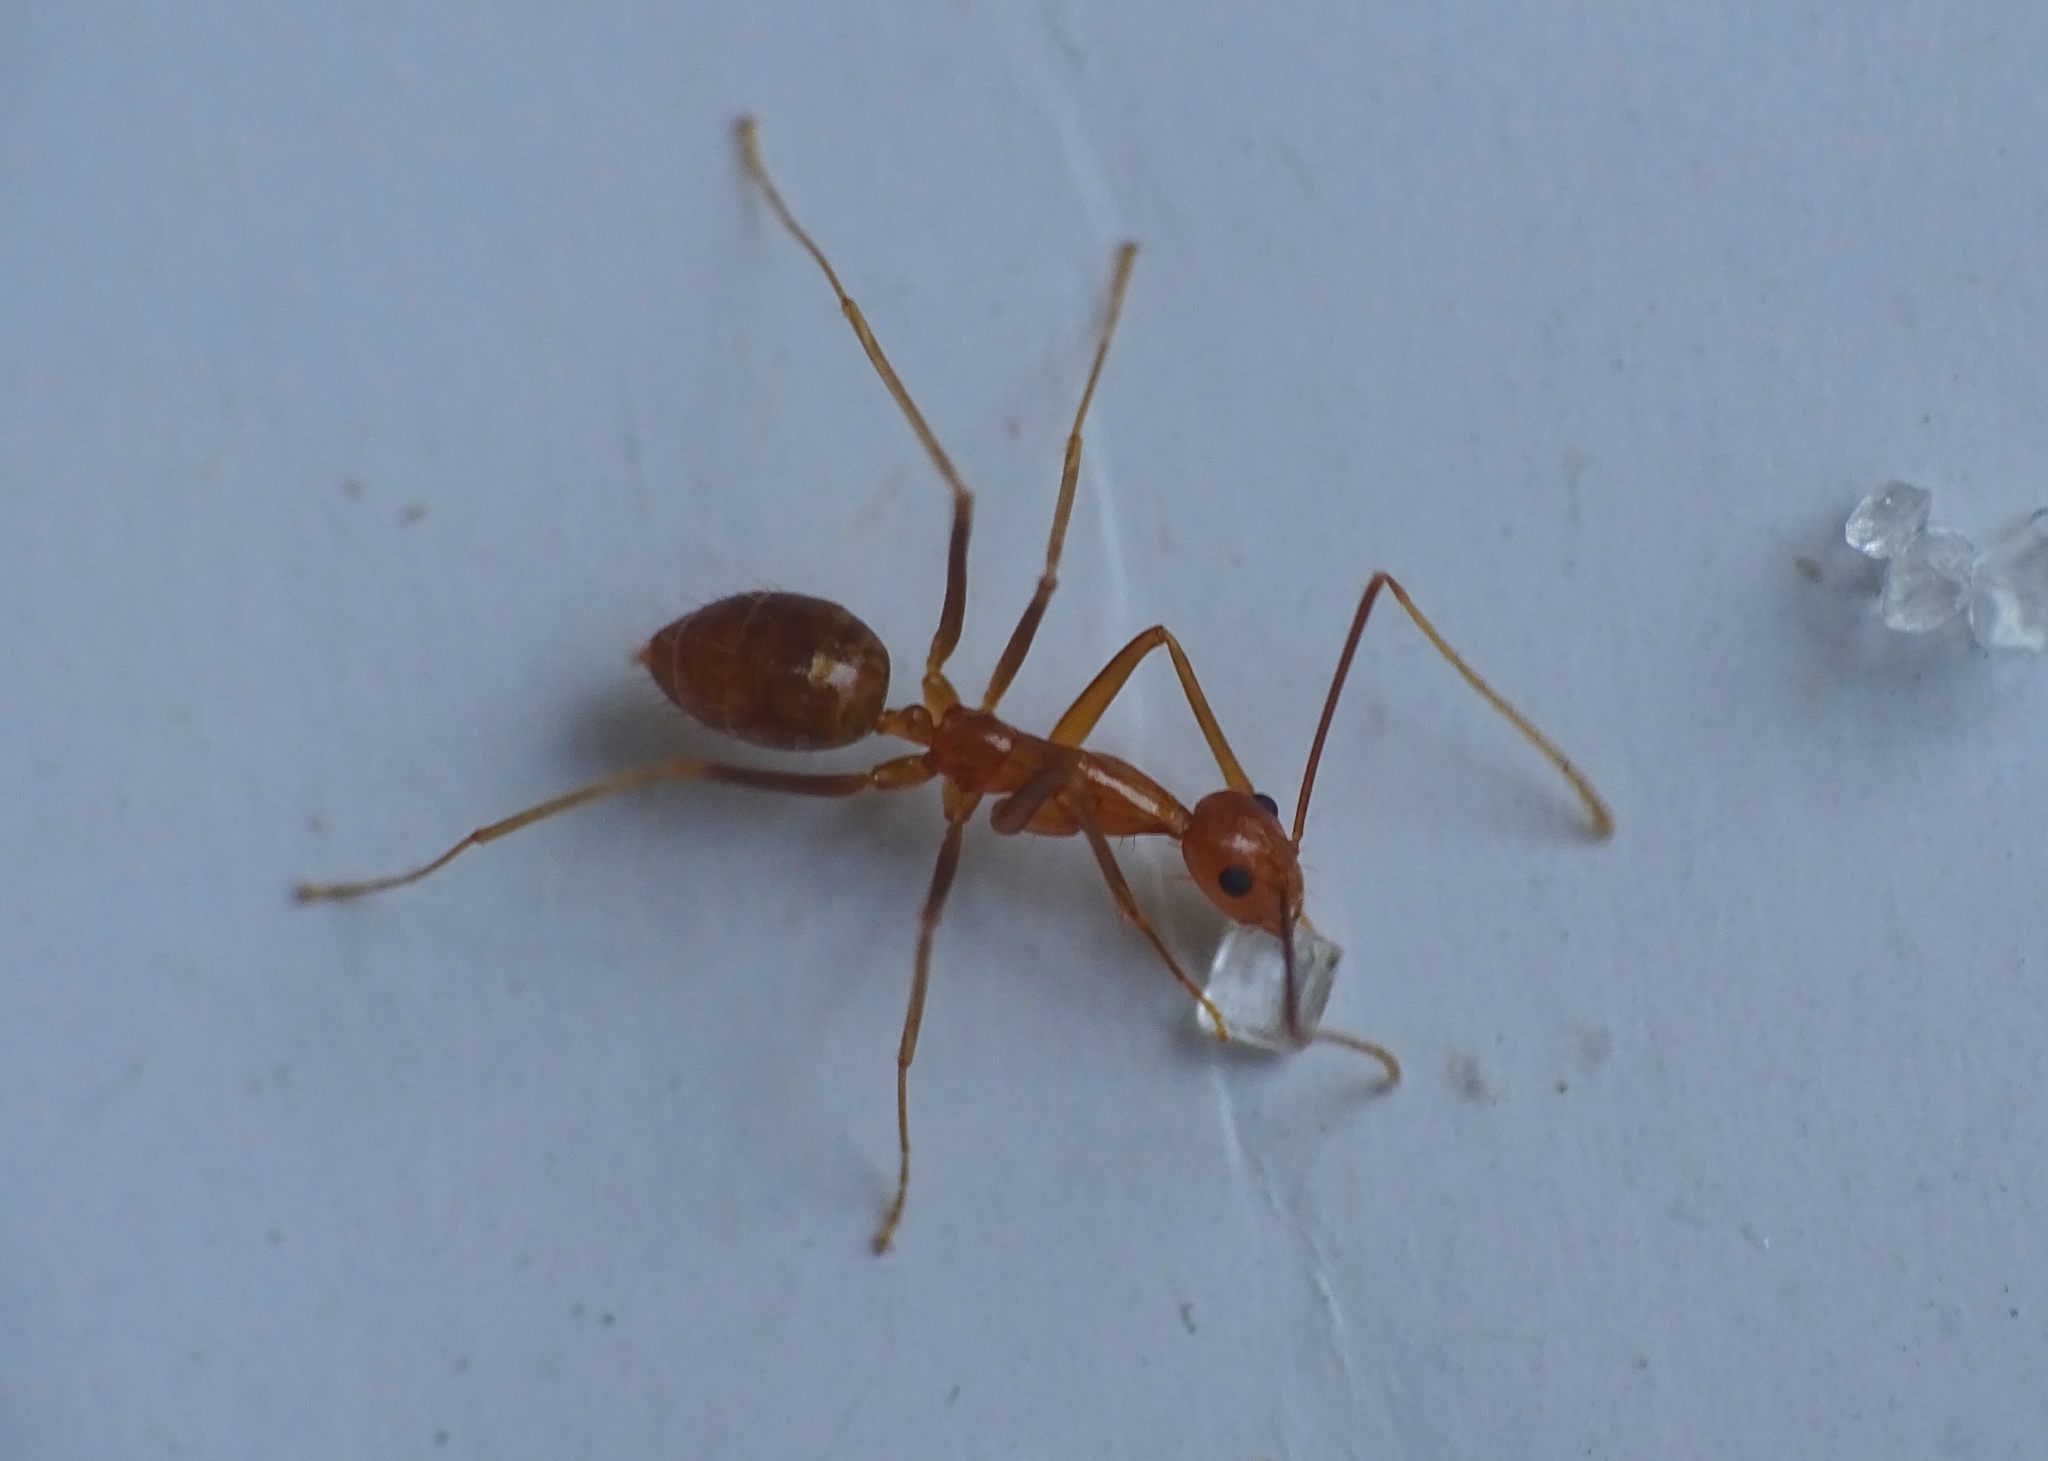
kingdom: Animalia
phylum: Arthropoda
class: Insecta
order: Hymenoptera
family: Formicidae
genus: Anoplolepis
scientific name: Anoplolepis gracilipes
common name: Ant
